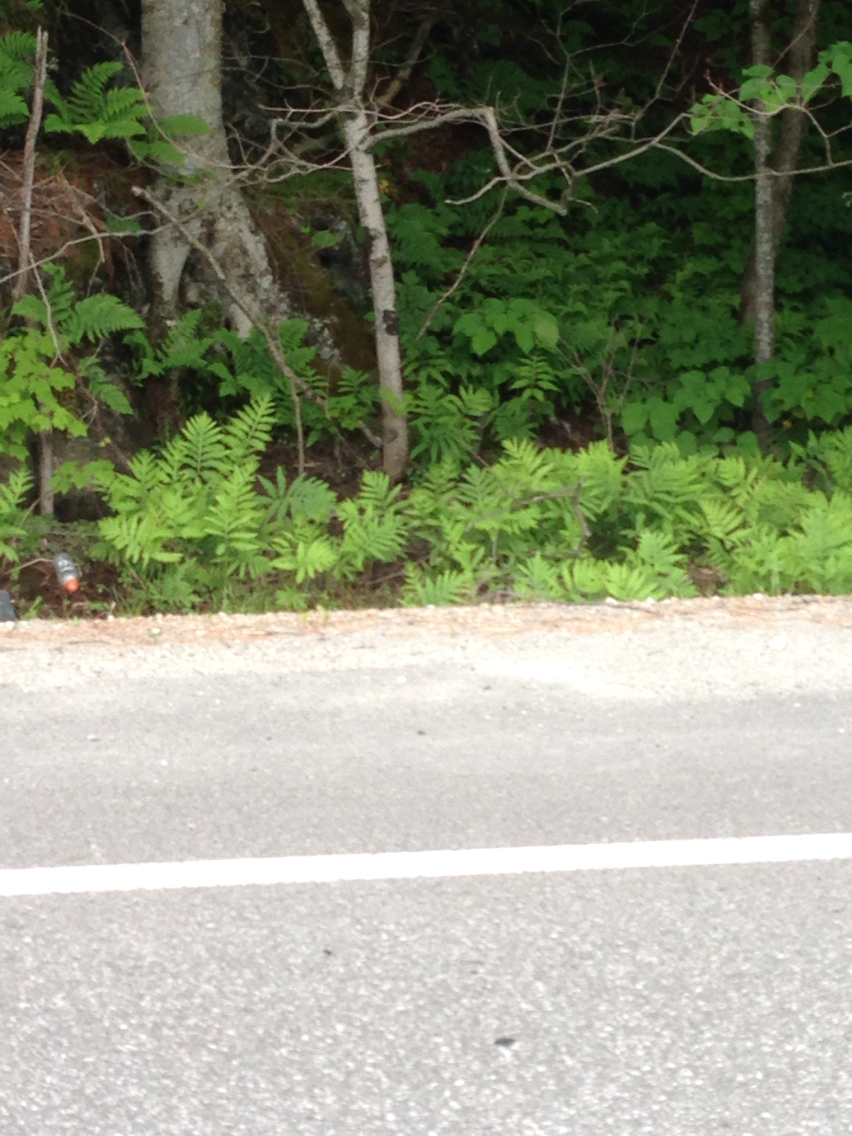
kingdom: Plantae
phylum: Tracheophyta
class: Polypodiopsida
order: Polypodiales
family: Onocleaceae
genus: Onoclea
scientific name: Onoclea sensibilis
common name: Sensitive fern
